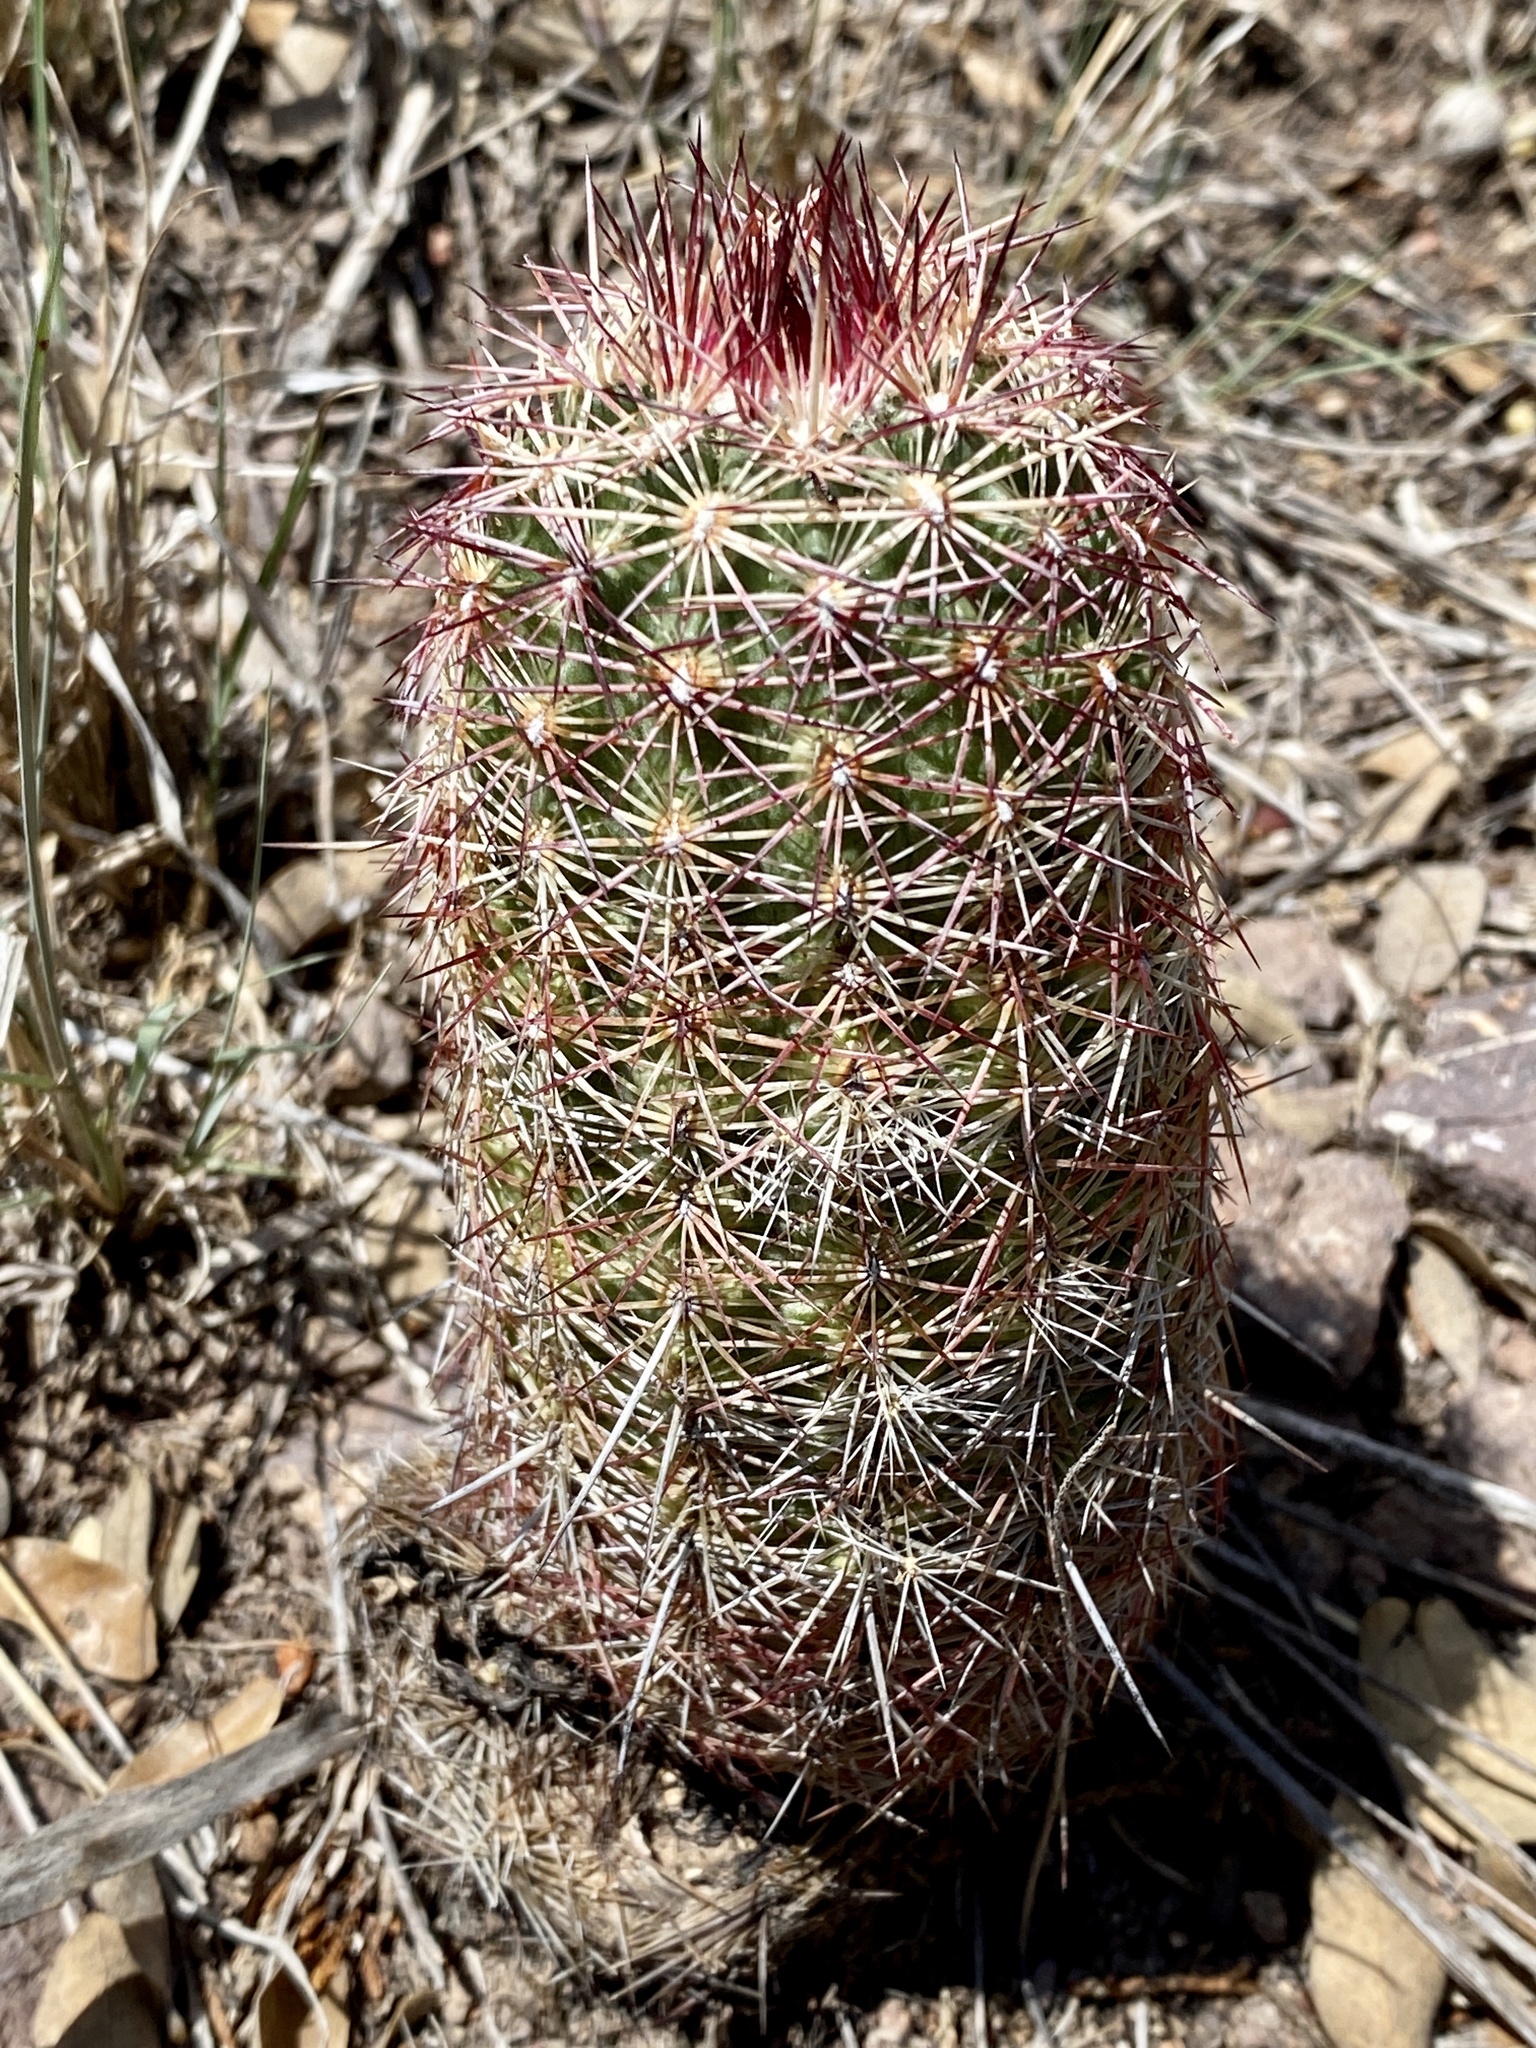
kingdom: Plantae
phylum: Tracheophyta
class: Magnoliopsida
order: Caryophyllales
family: Cactaceae
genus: Echinocereus
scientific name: Echinocereus viridiflorus
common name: Nylon hedgehog cactus
